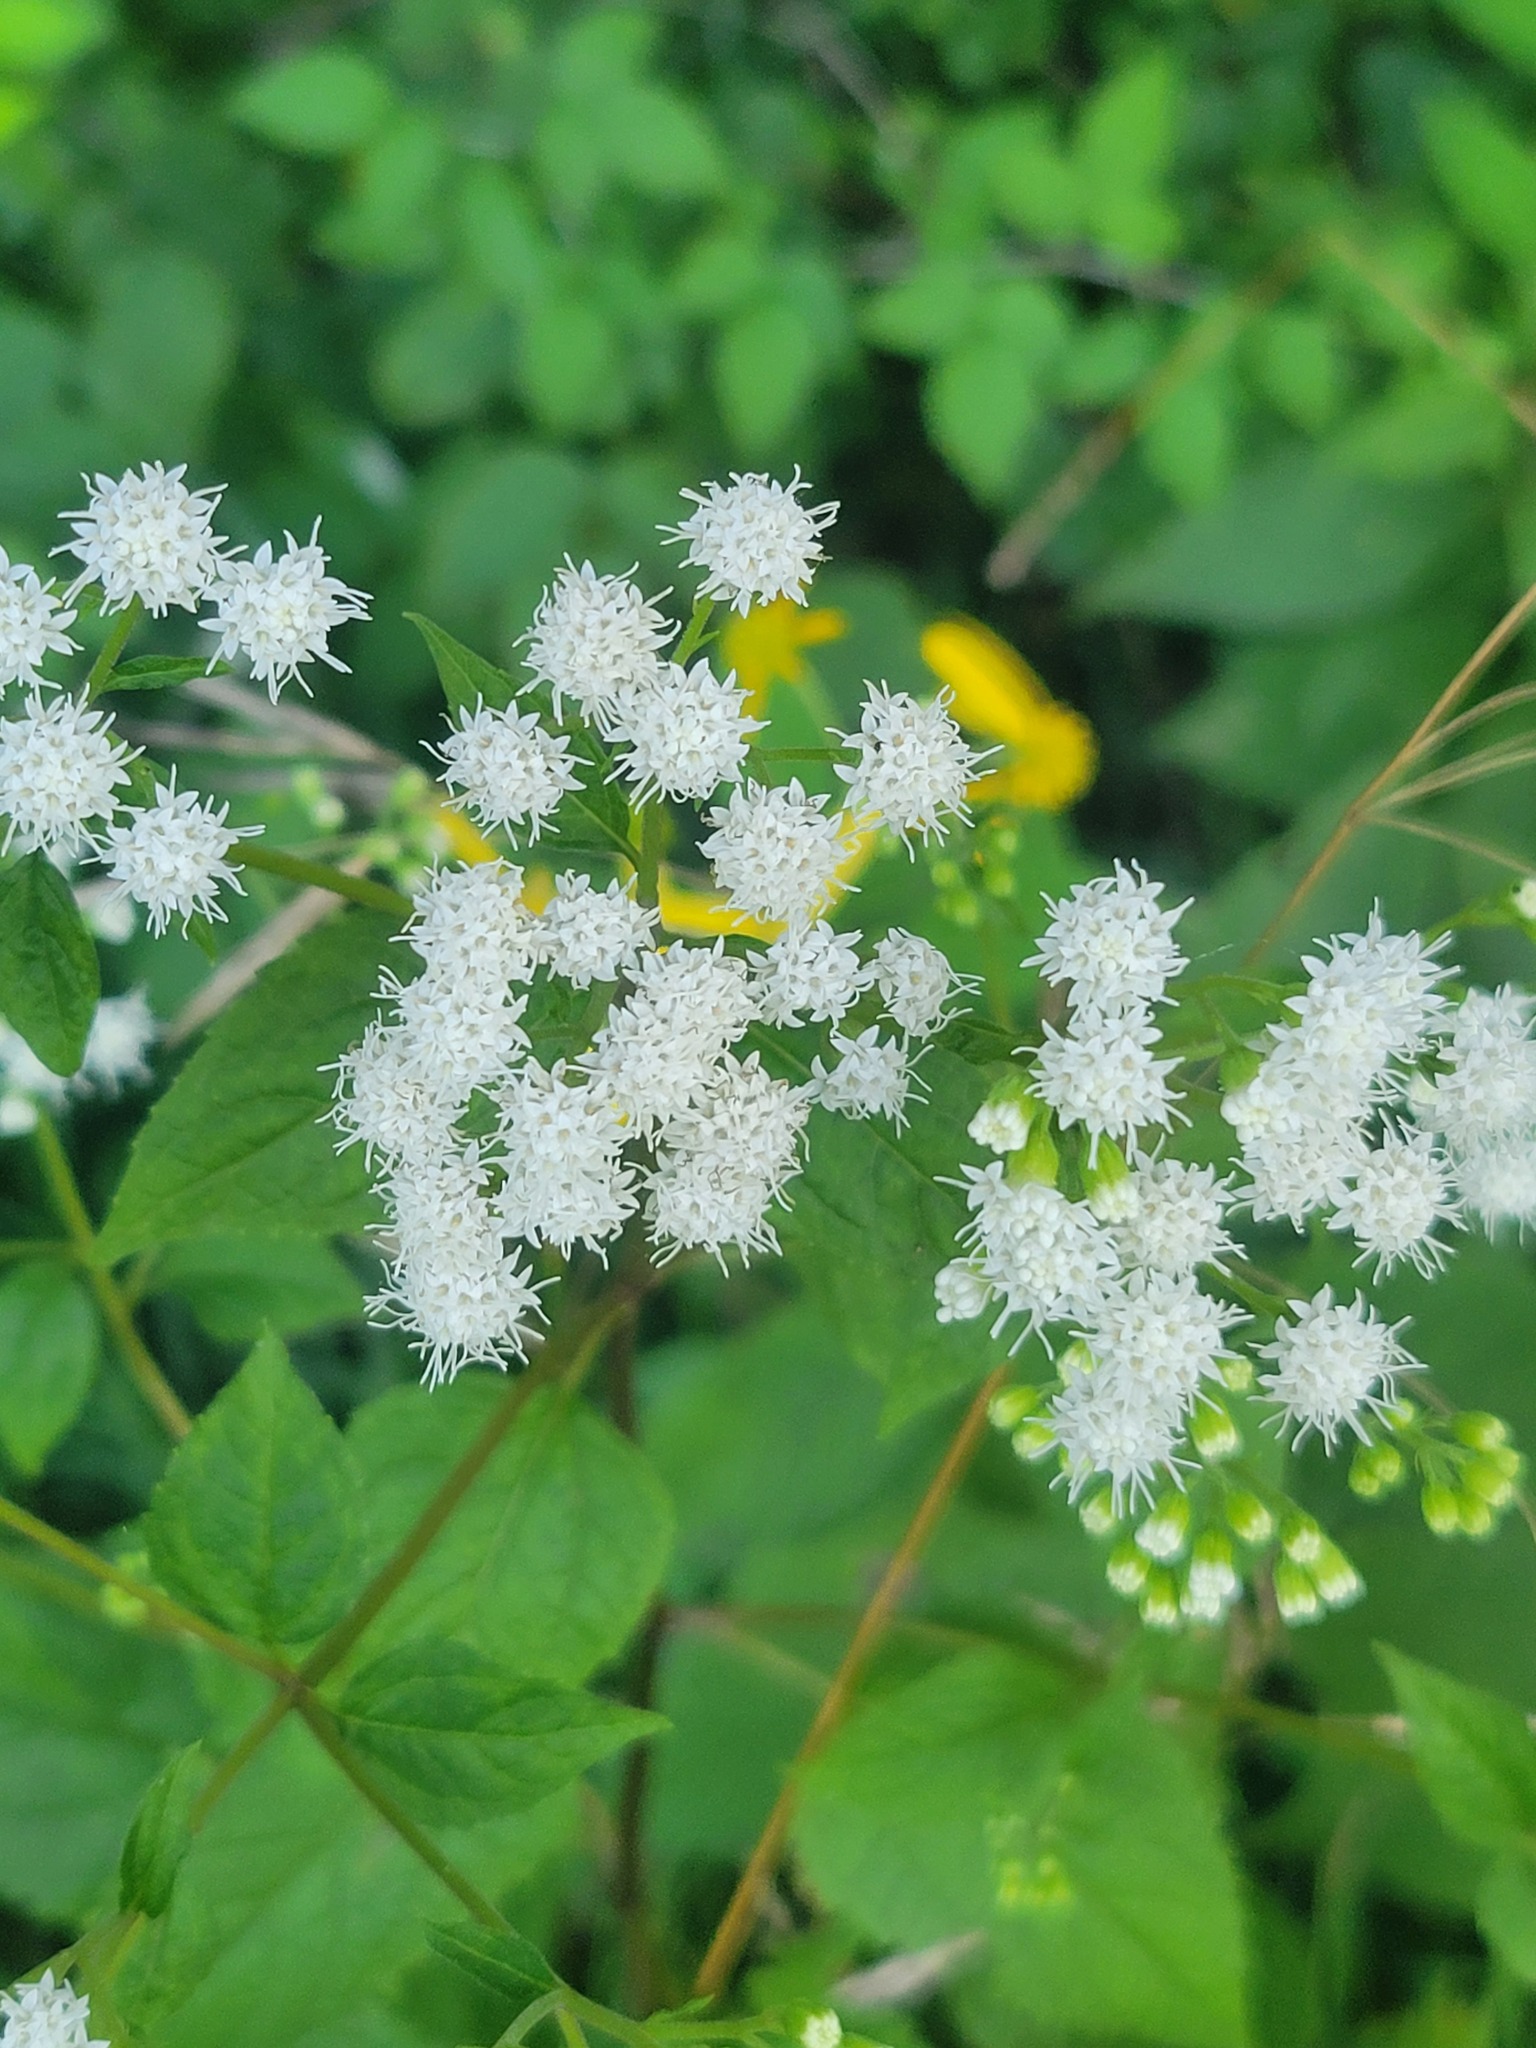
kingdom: Plantae
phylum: Tracheophyta
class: Magnoliopsida
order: Asterales
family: Asteraceae
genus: Ageratina
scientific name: Ageratina altissima
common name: White snakeroot
